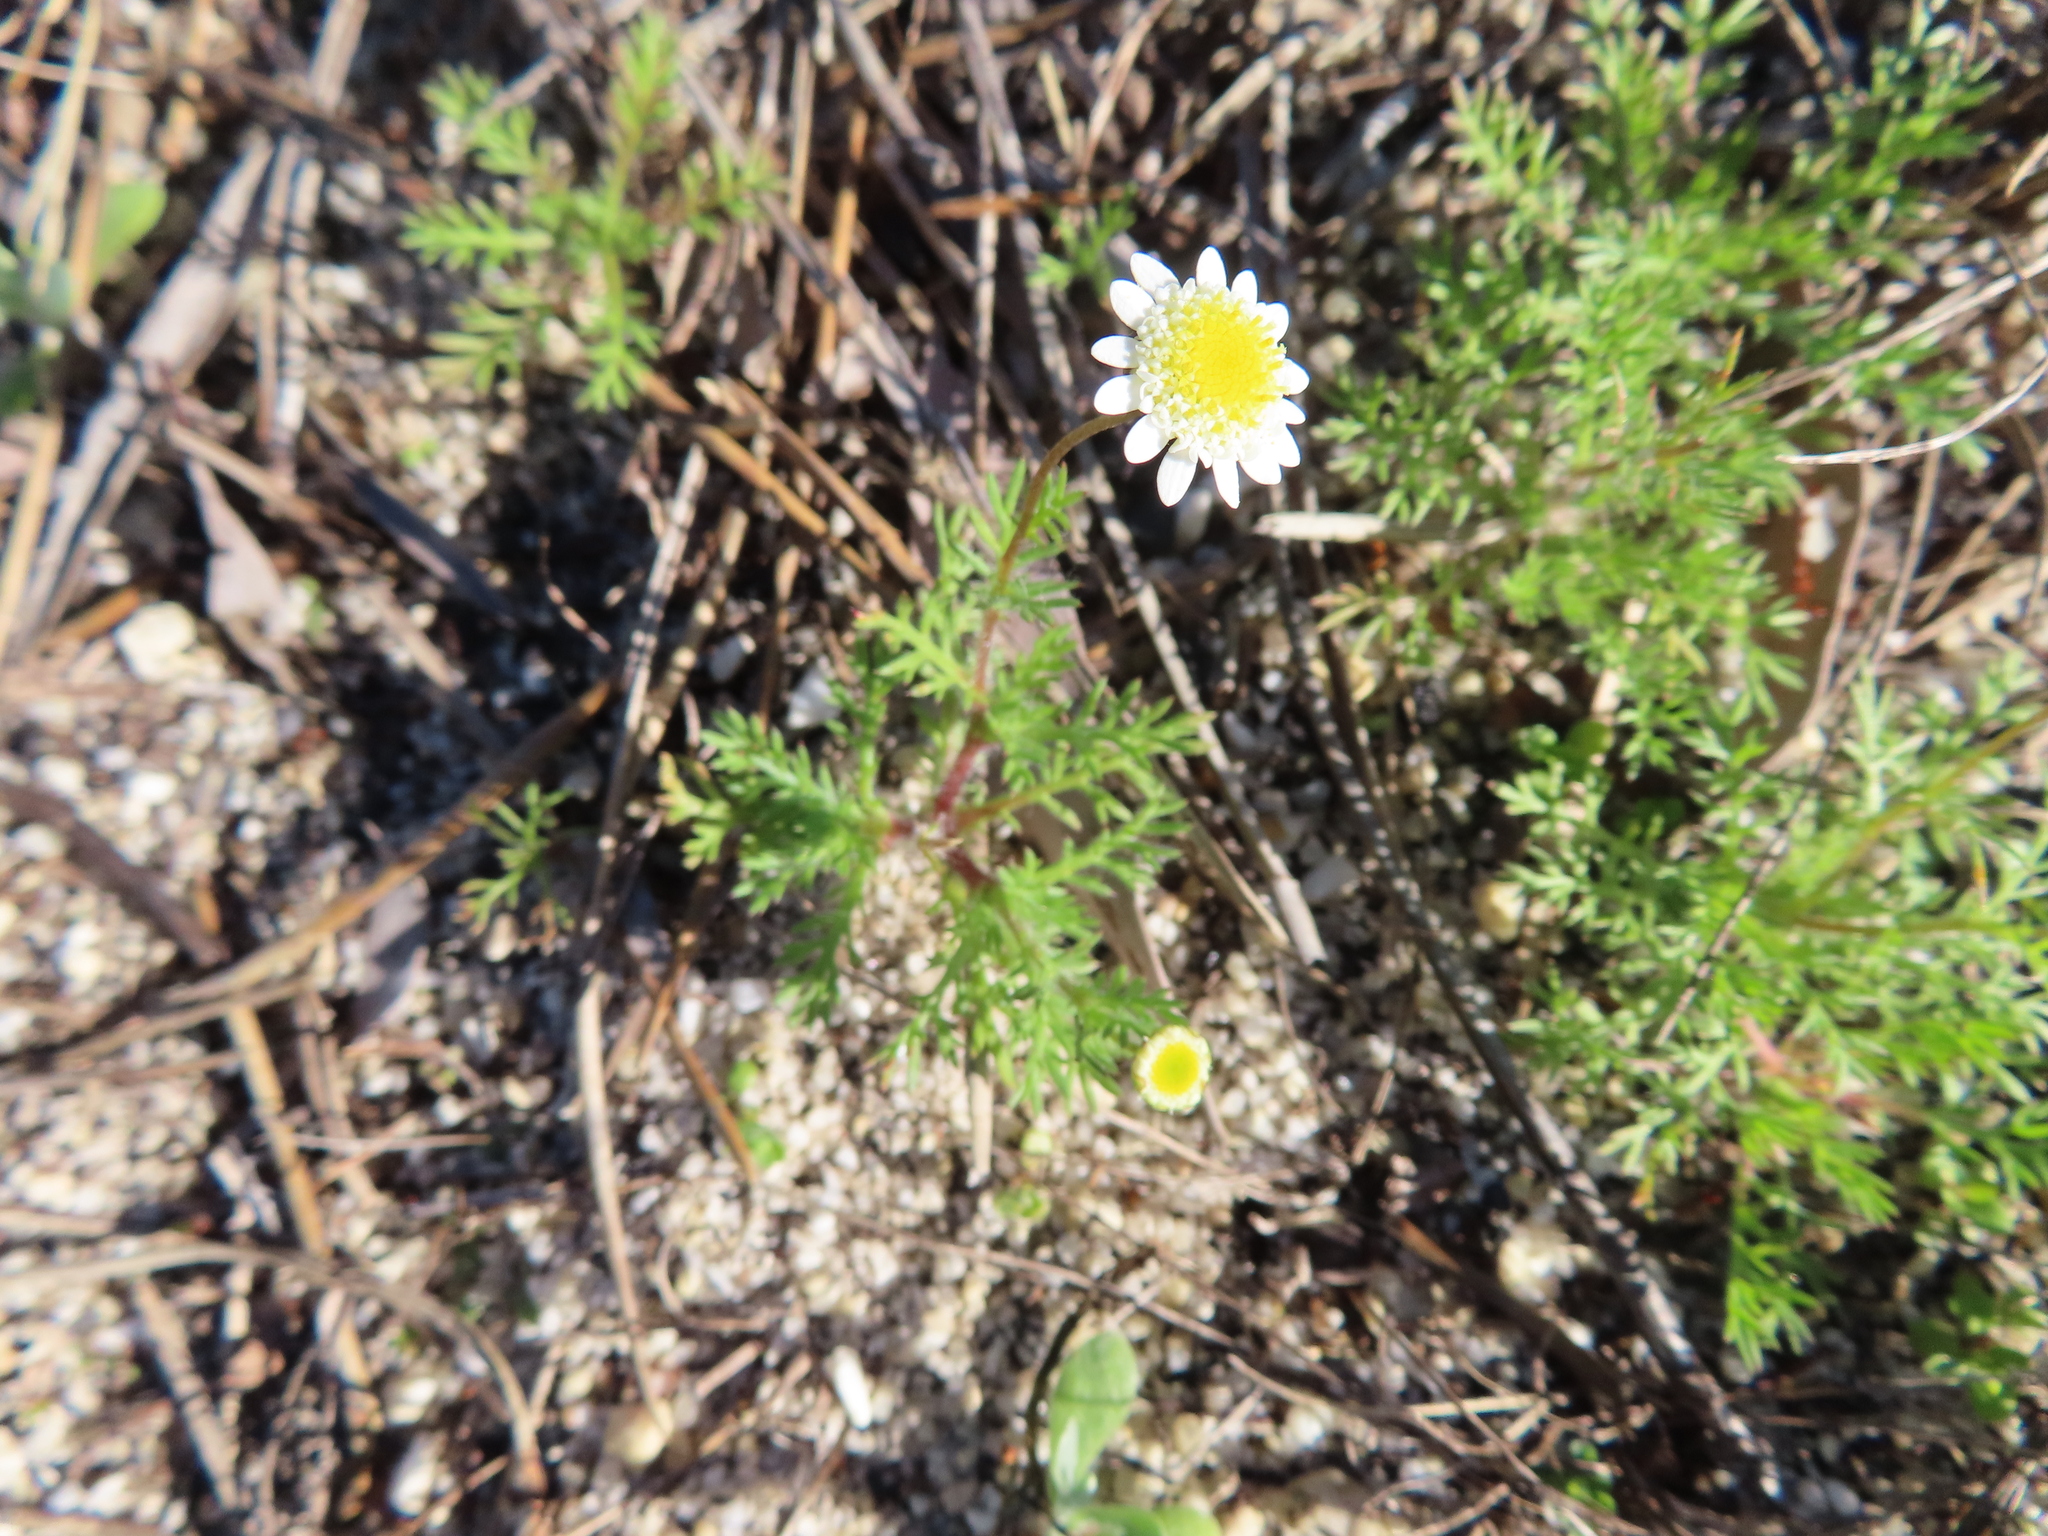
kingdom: Plantae
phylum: Tracheophyta
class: Magnoliopsida
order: Asterales
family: Asteraceae
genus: Cotula
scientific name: Cotula turbinata
